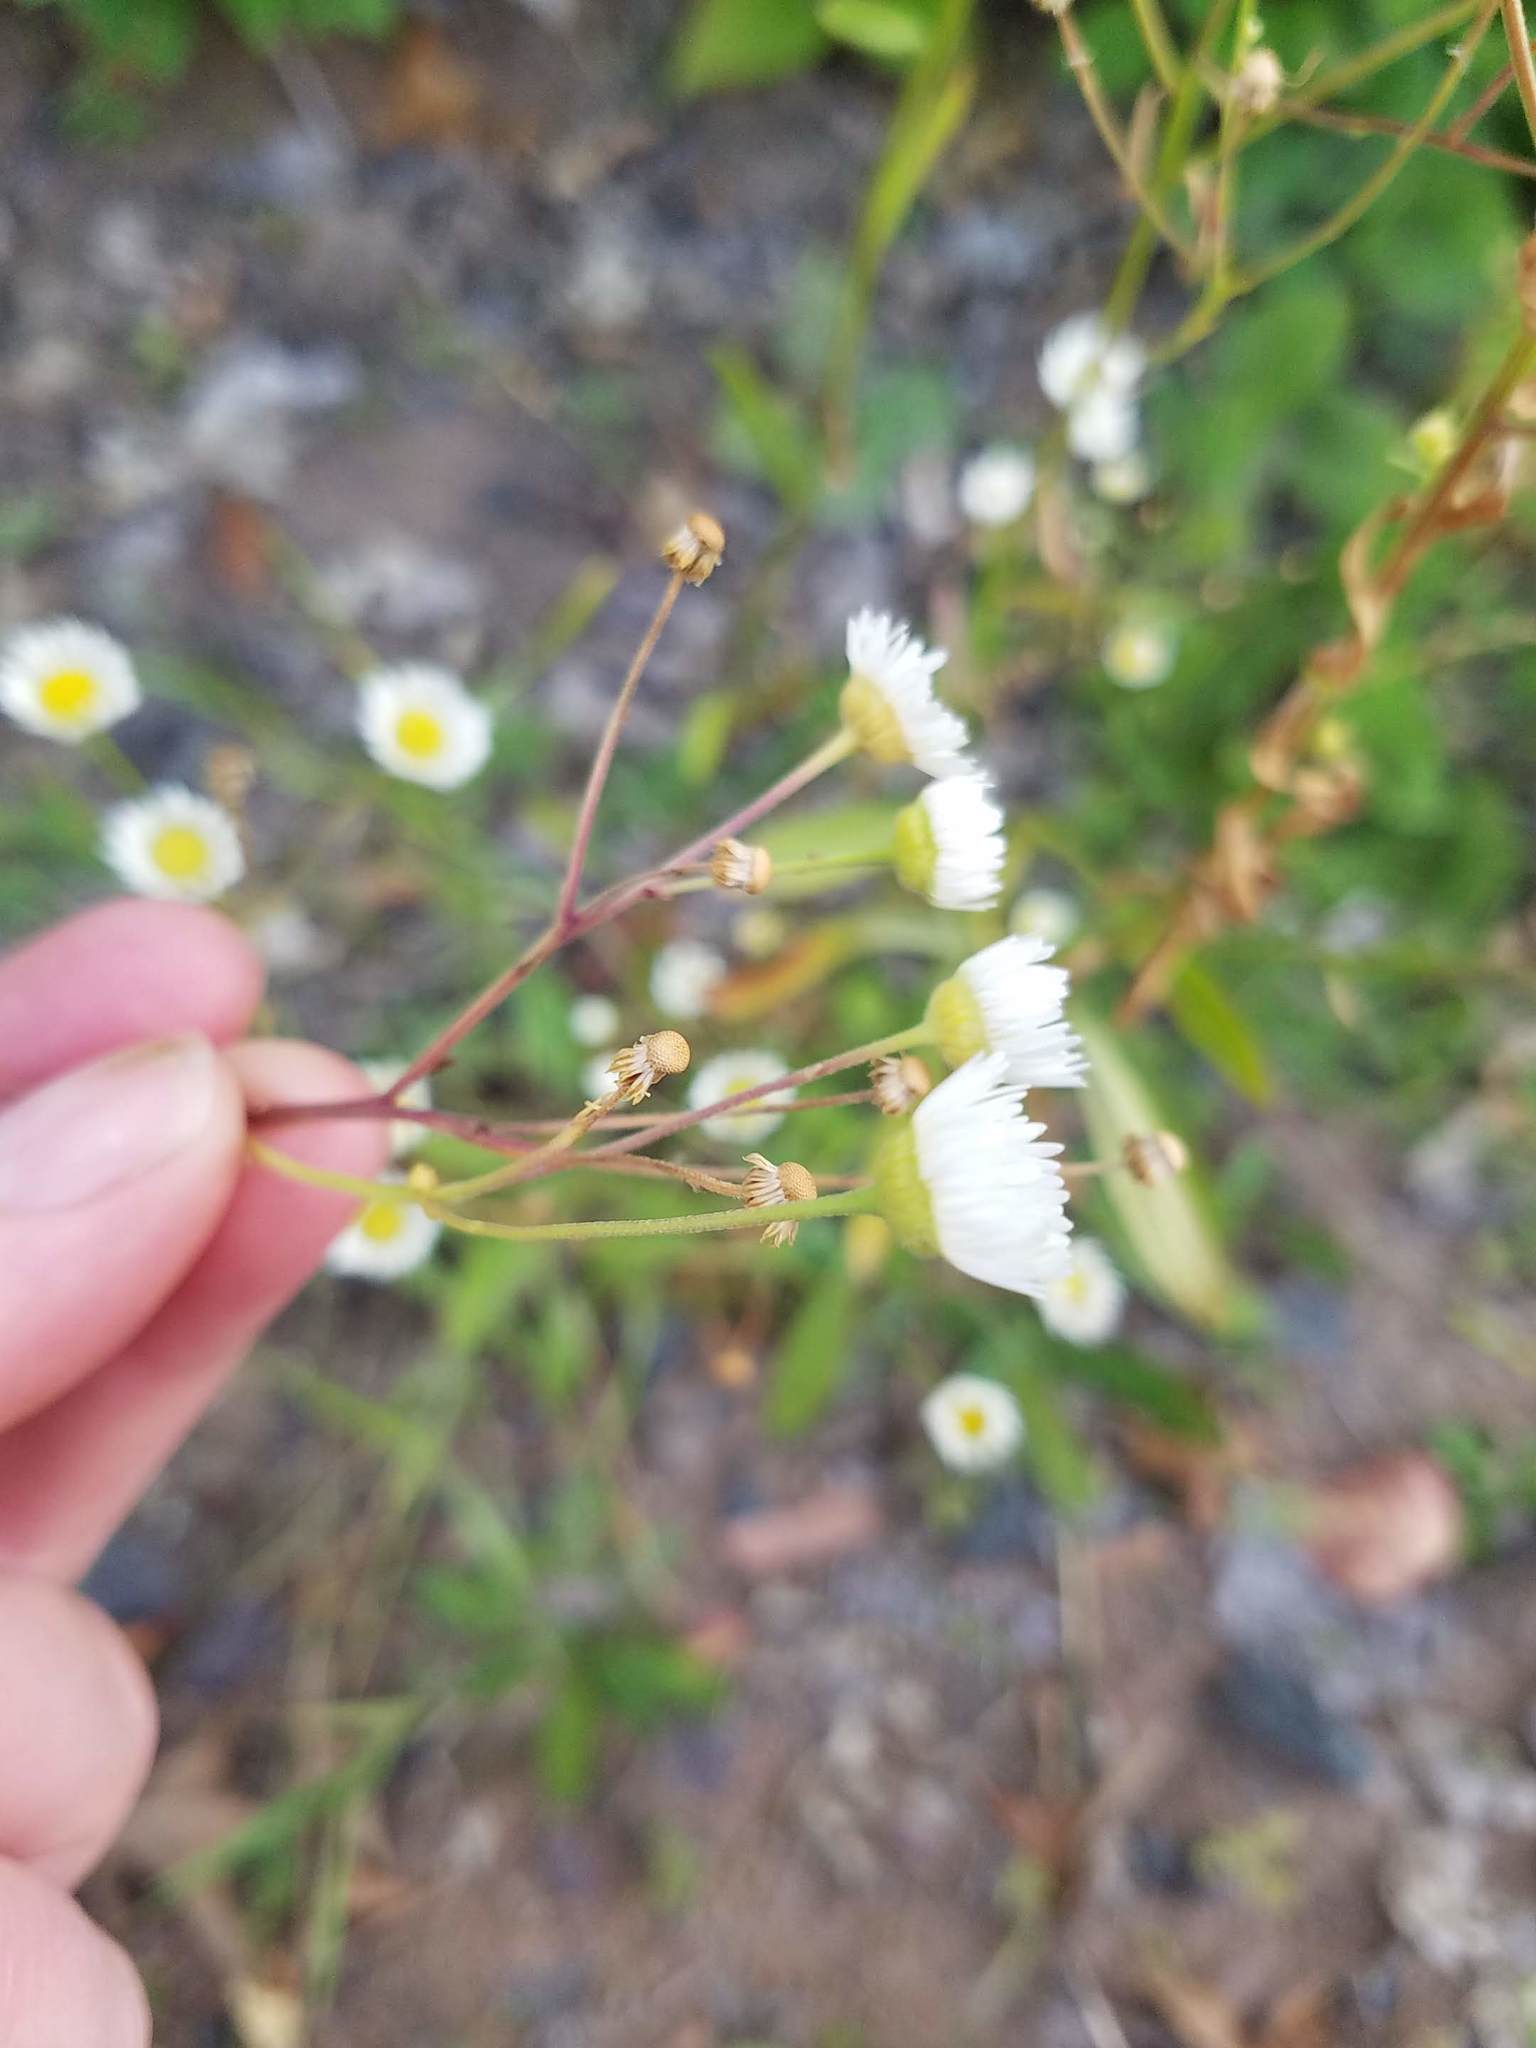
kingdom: Plantae
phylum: Tracheophyta
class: Magnoliopsida
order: Asterales
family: Asteraceae
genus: Erigeron
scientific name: Erigeron strigosus
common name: Common eastern fleabane
